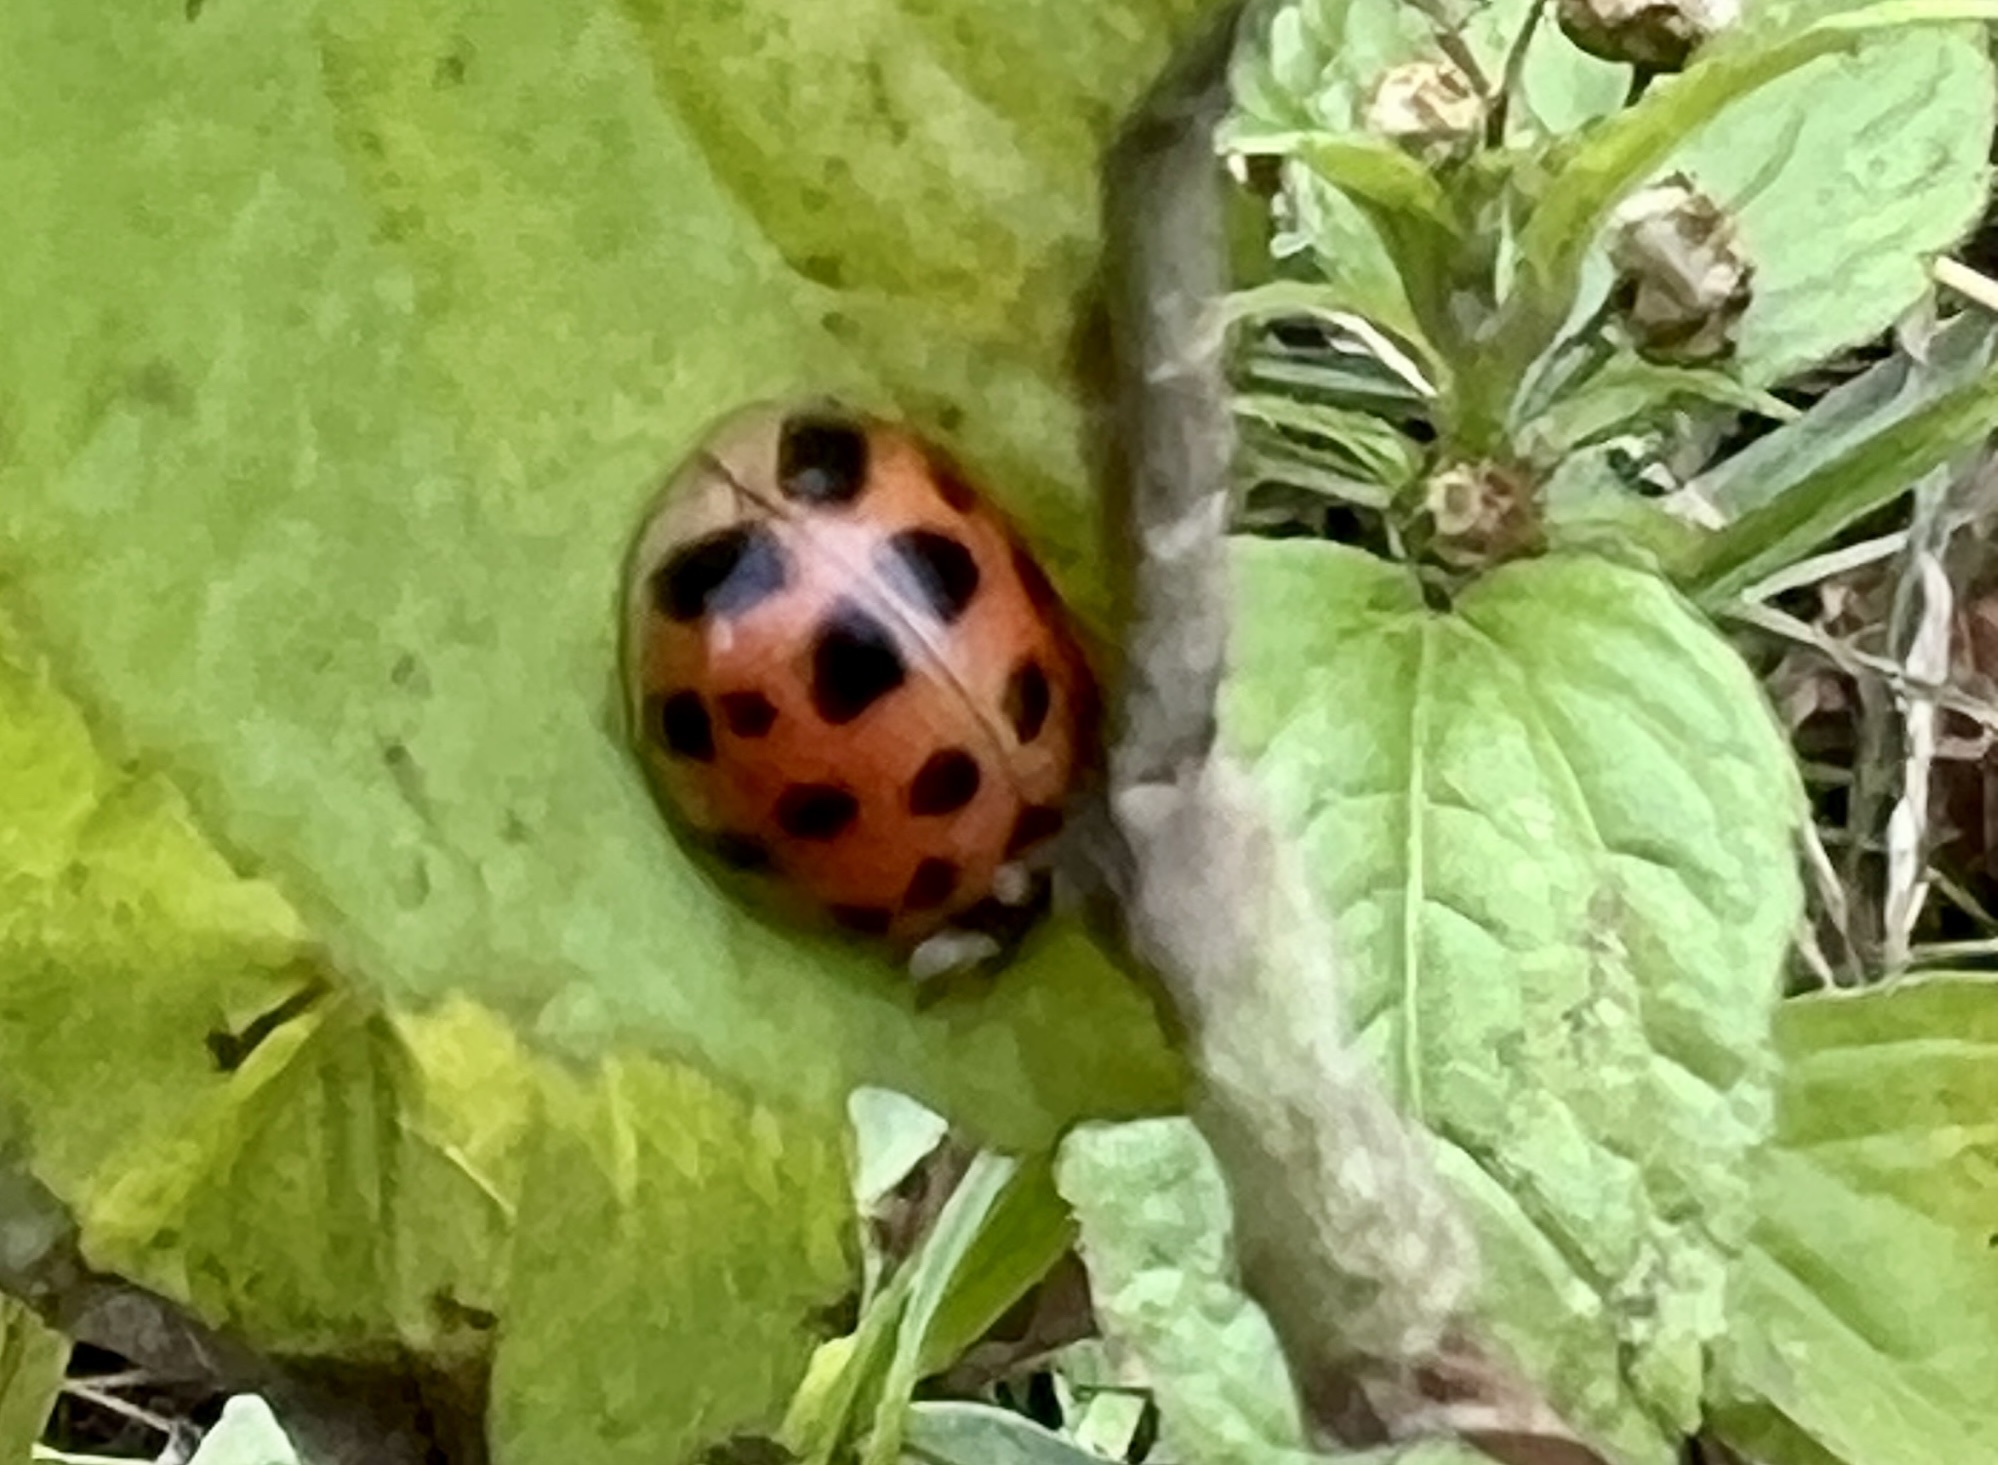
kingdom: Animalia
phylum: Arthropoda
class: Insecta
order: Coleoptera
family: Coccinellidae
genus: Harmonia
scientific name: Harmonia axyridis
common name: Harlequin ladybird
